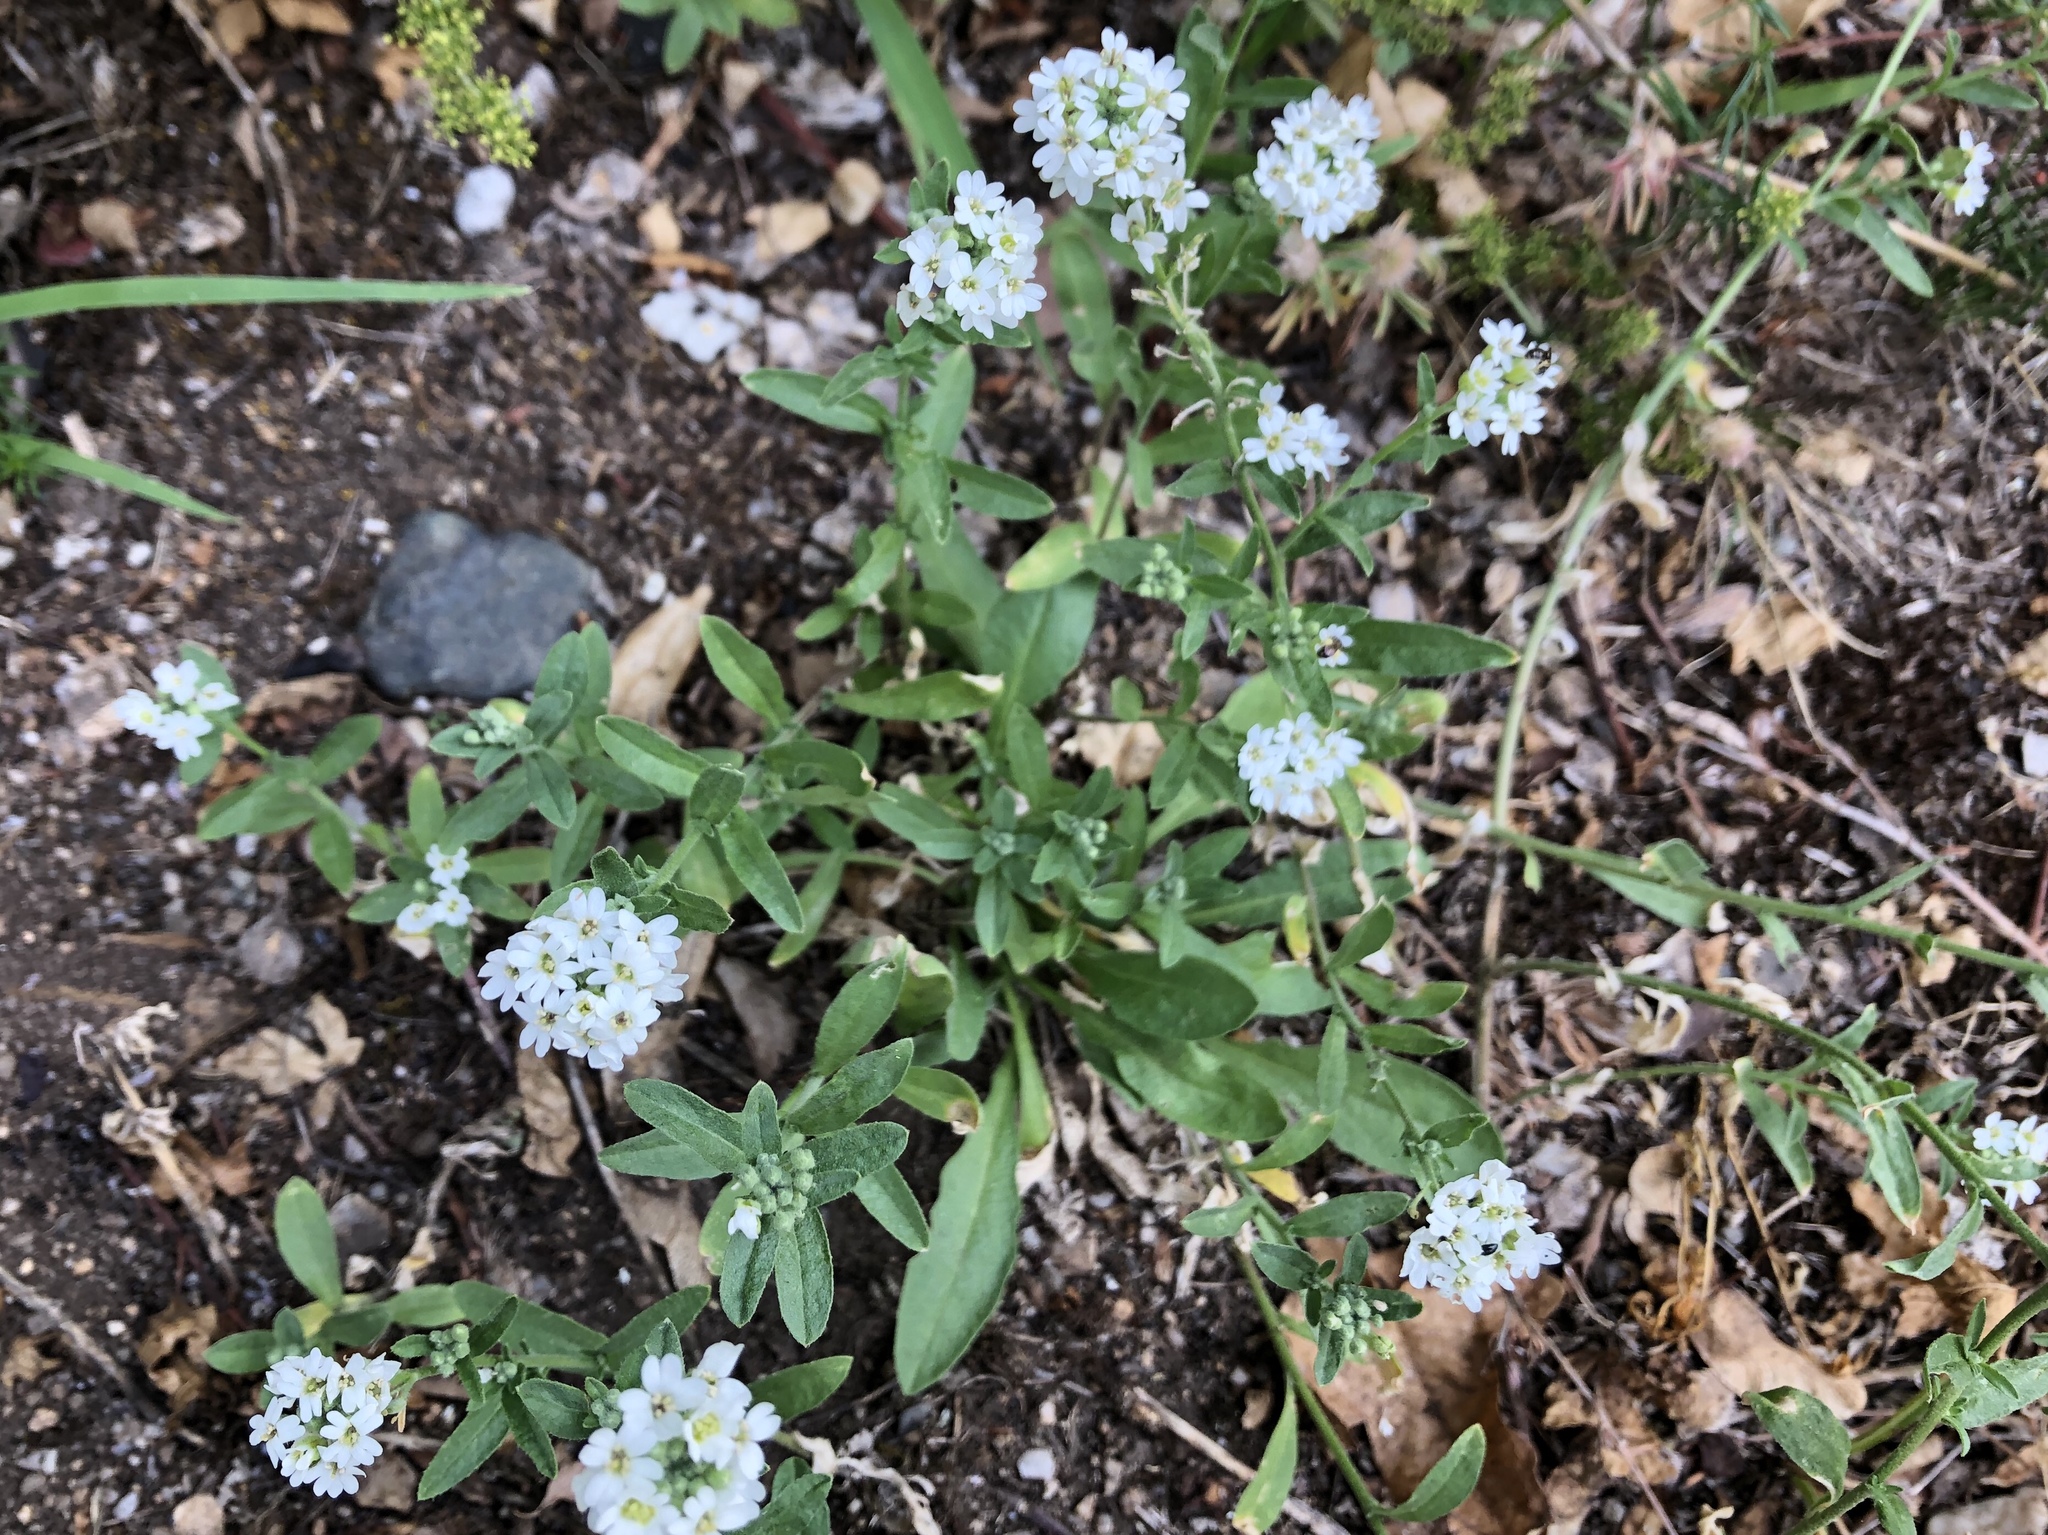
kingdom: Plantae
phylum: Tracheophyta
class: Magnoliopsida
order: Brassicales
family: Brassicaceae
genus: Berteroa
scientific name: Berteroa incana
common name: Hoary alison
